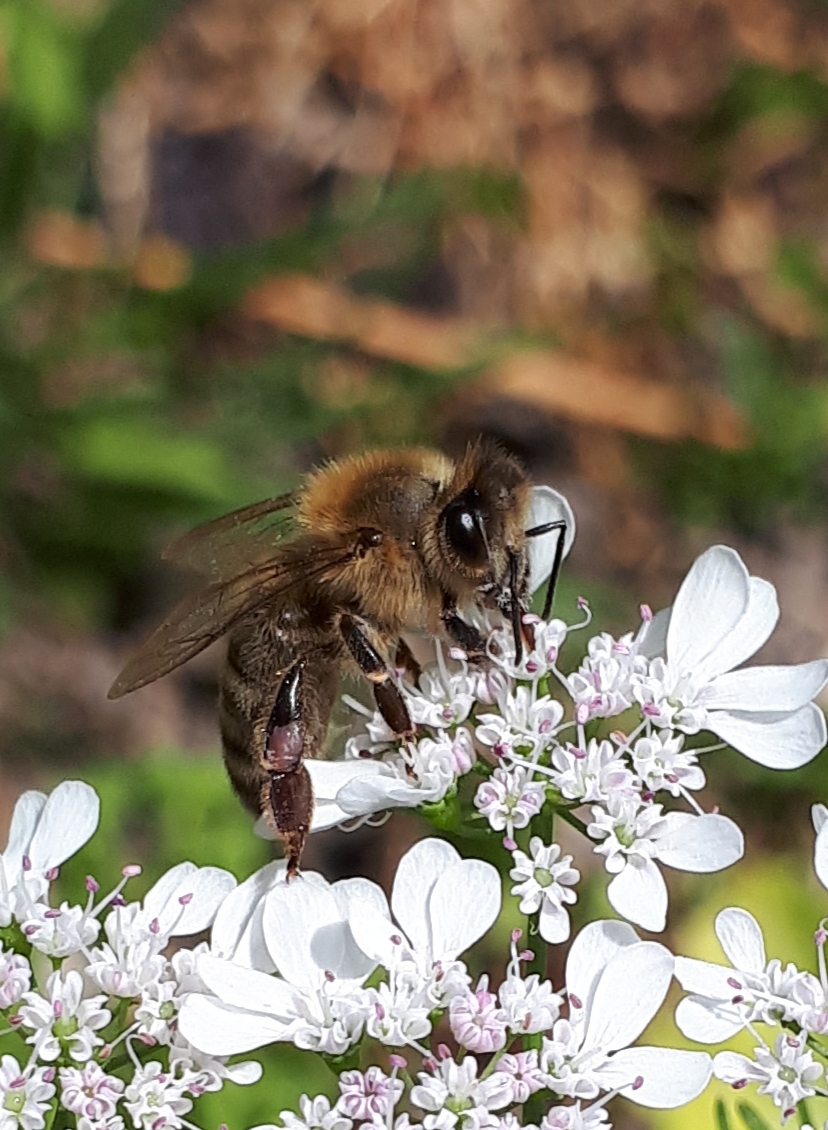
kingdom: Animalia
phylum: Arthropoda
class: Insecta
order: Hymenoptera
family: Apidae
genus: Apis
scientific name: Apis mellifera
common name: Honey bee
